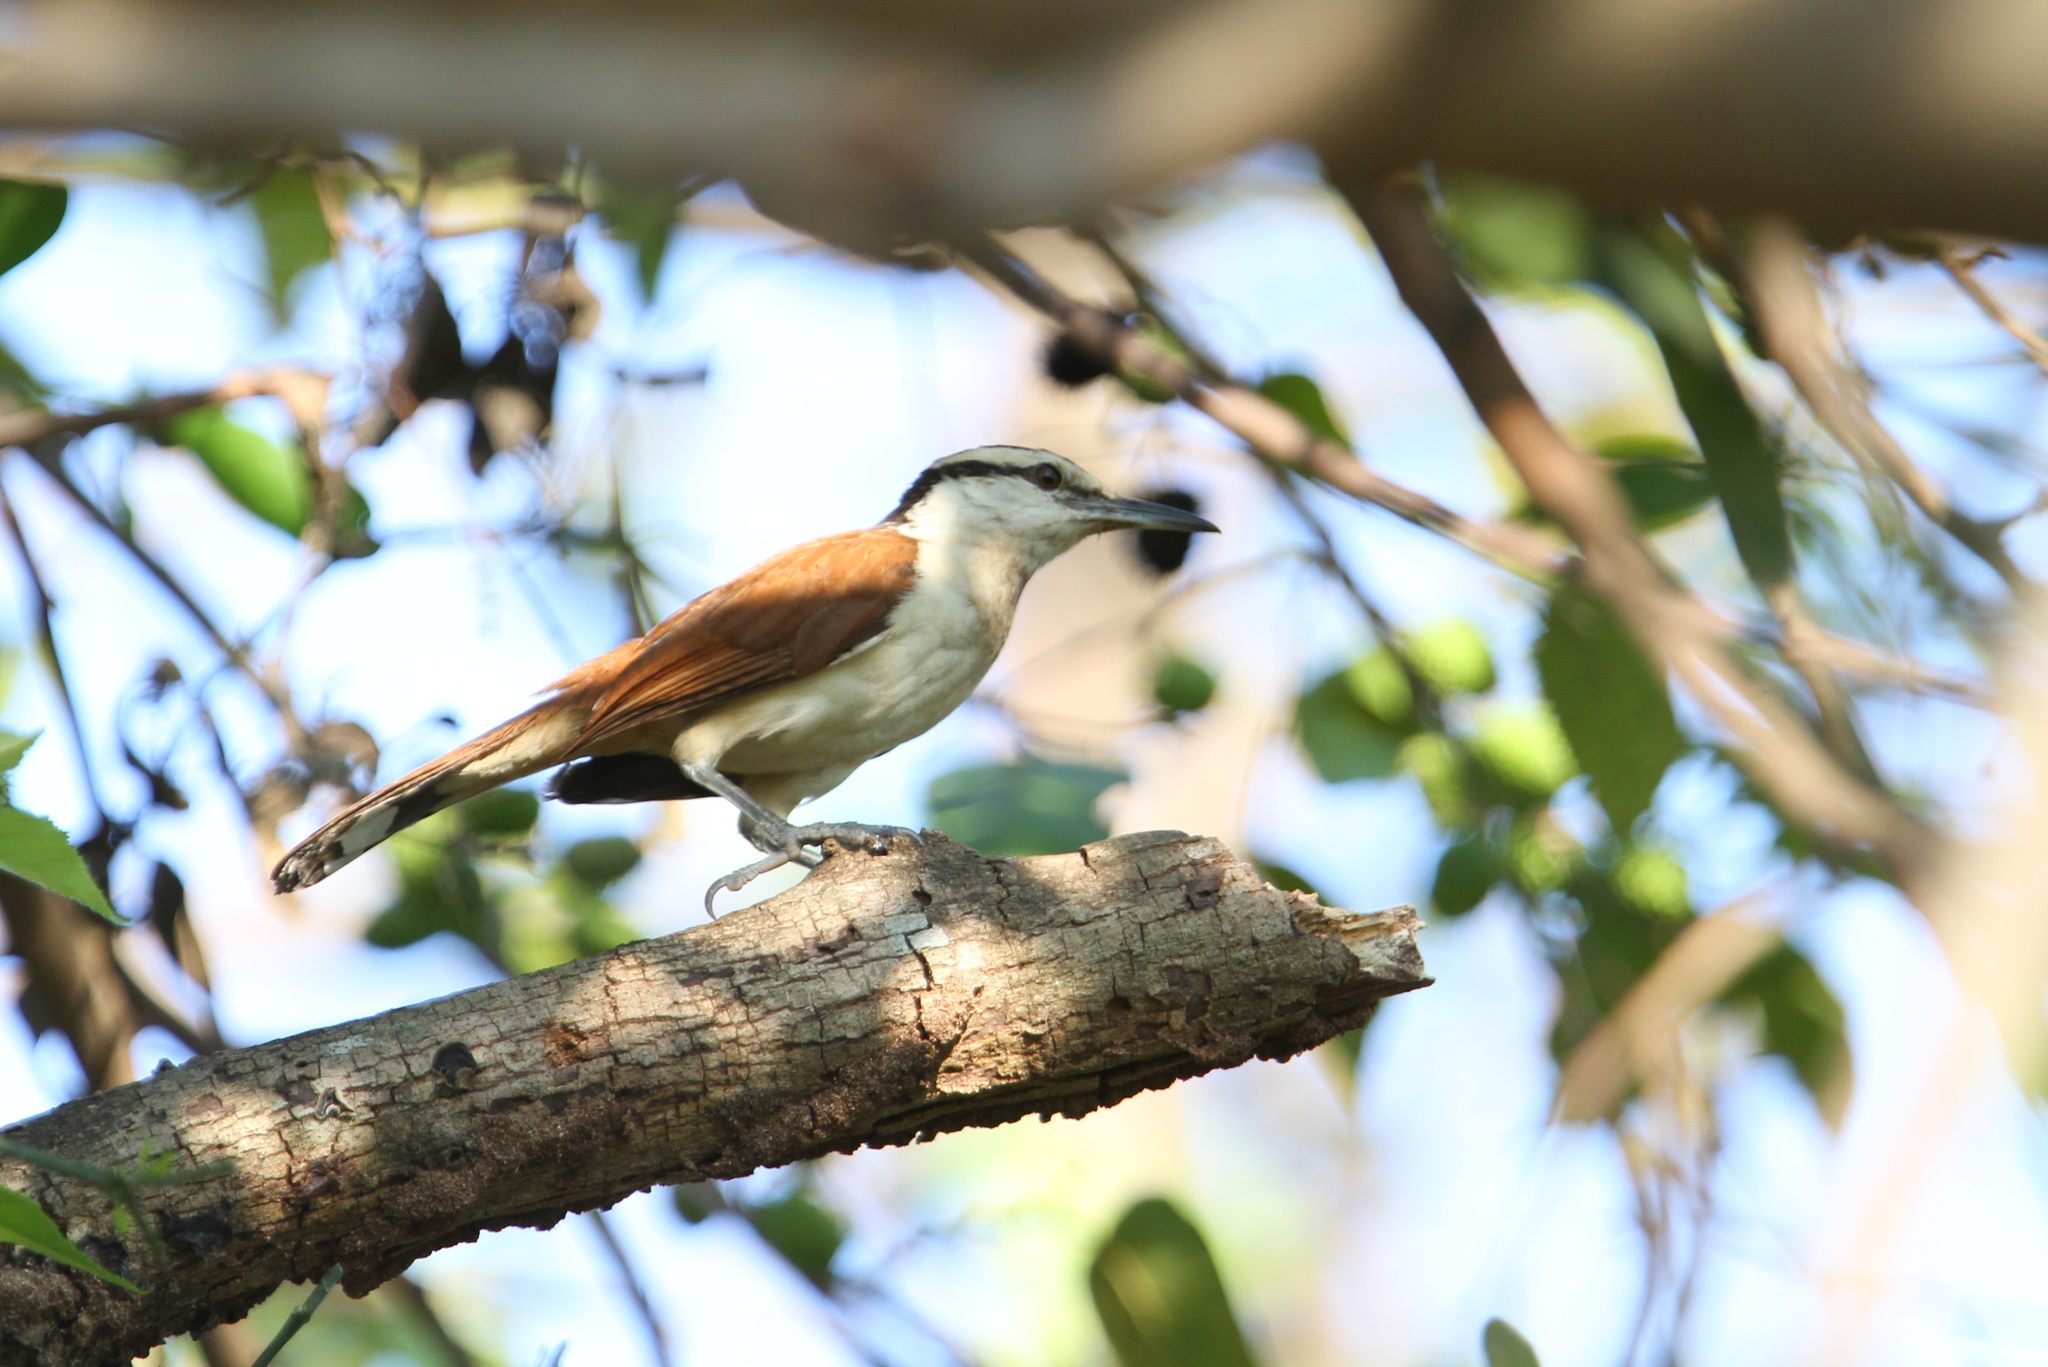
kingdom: Animalia
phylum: Chordata
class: Aves
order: Passeriformes
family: Troglodytidae
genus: Campylorhynchus
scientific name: Campylorhynchus chiapensis
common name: Giant wren
